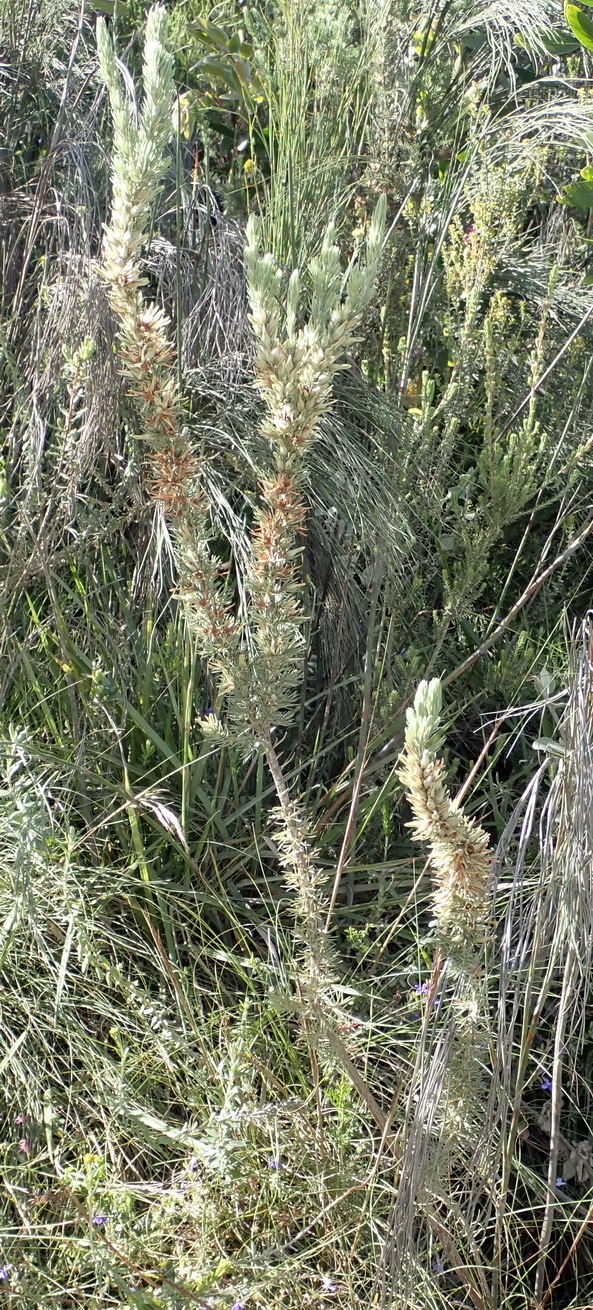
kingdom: Plantae
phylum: Tracheophyta
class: Magnoliopsida
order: Ericales
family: Ericaceae
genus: Erica
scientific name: Erica nabea
